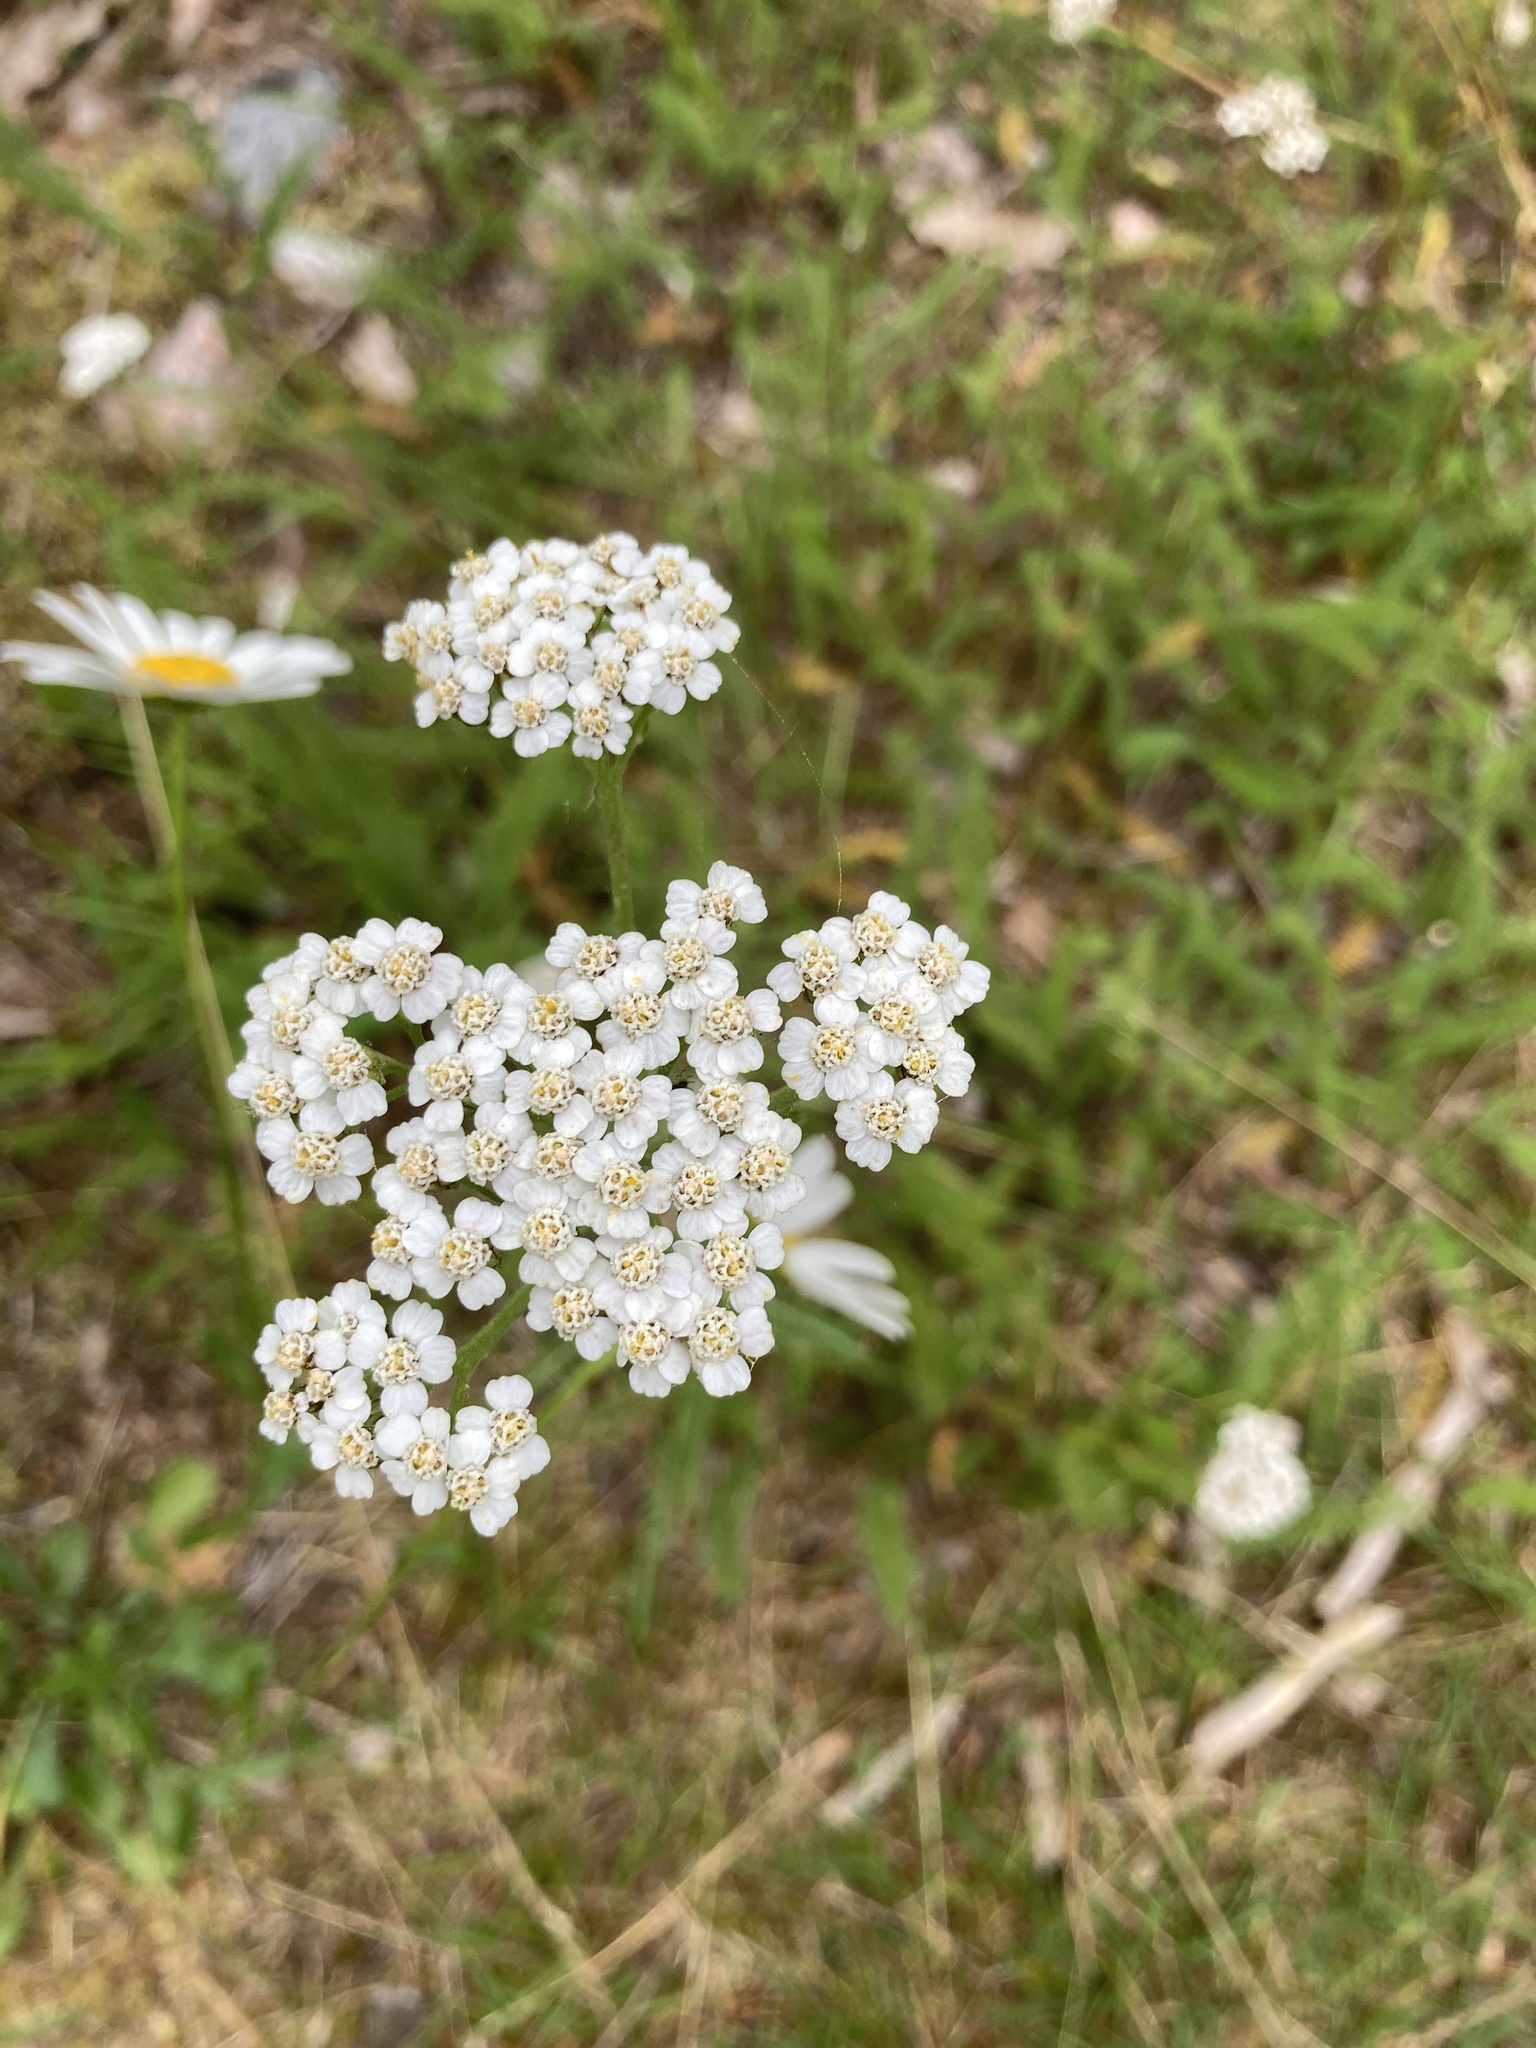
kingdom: Plantae
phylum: Tracheophyta
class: Magnoliopsida
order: Asterales
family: Asteraceae
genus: Achillea
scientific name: Achillea millefolium
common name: Yarrow
